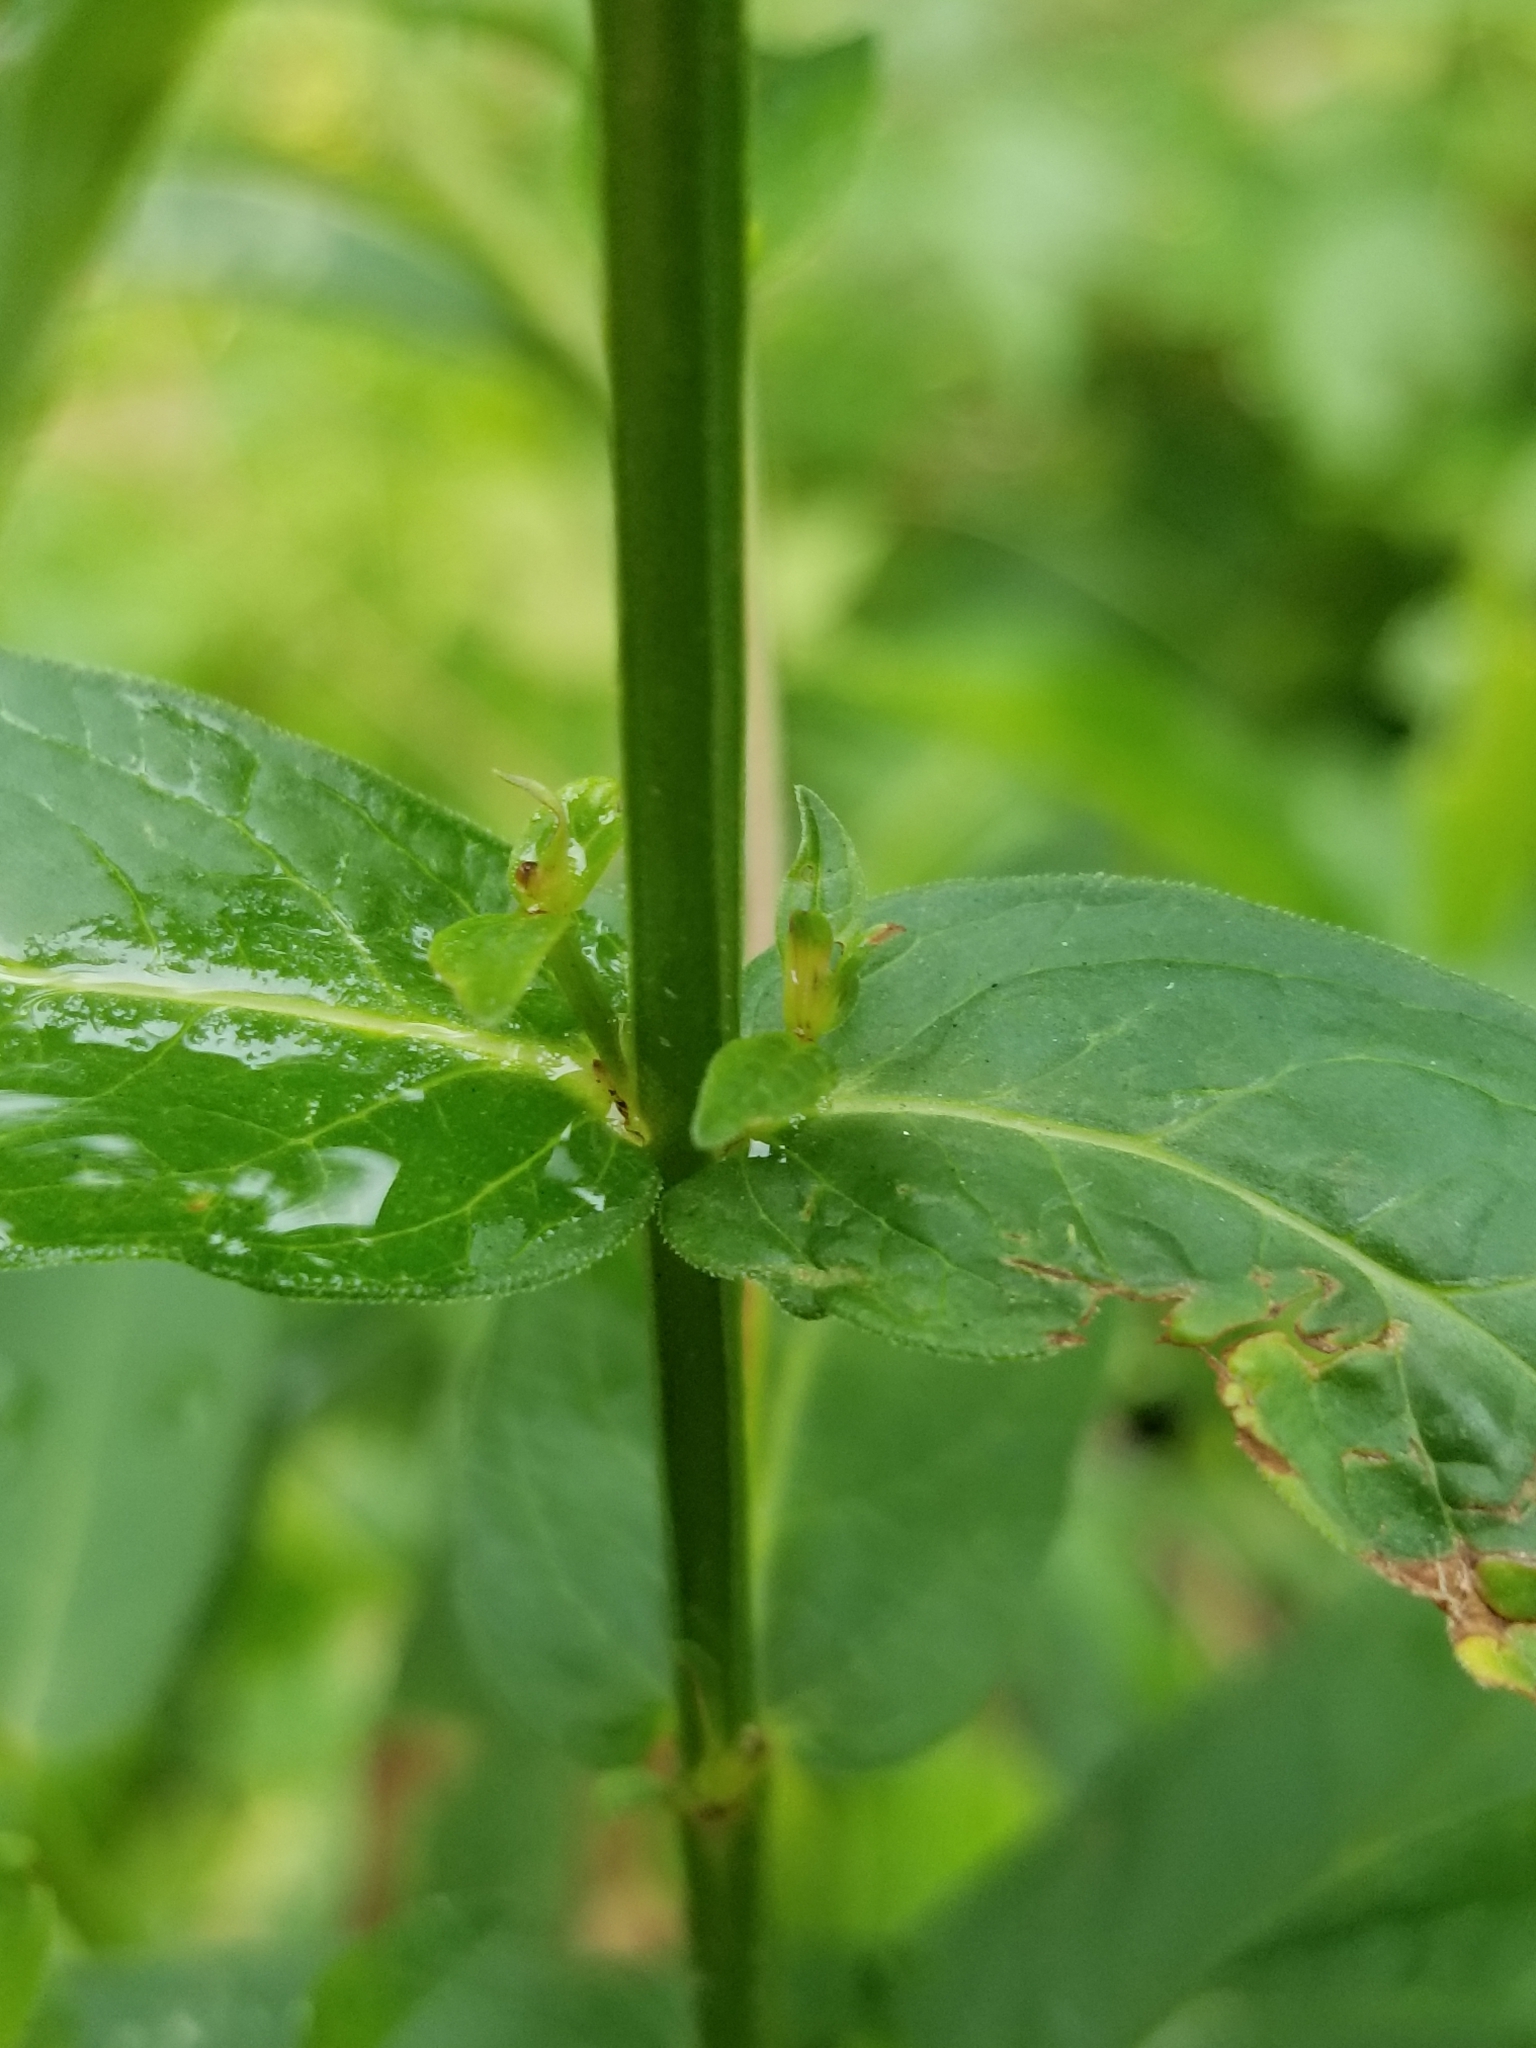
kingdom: Plantae
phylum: Tracheophyta
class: Magnoliopsida
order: Myrtales
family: Lythraceae
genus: Lythrum
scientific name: Lythrum salicaria
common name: Purple loosestrife
